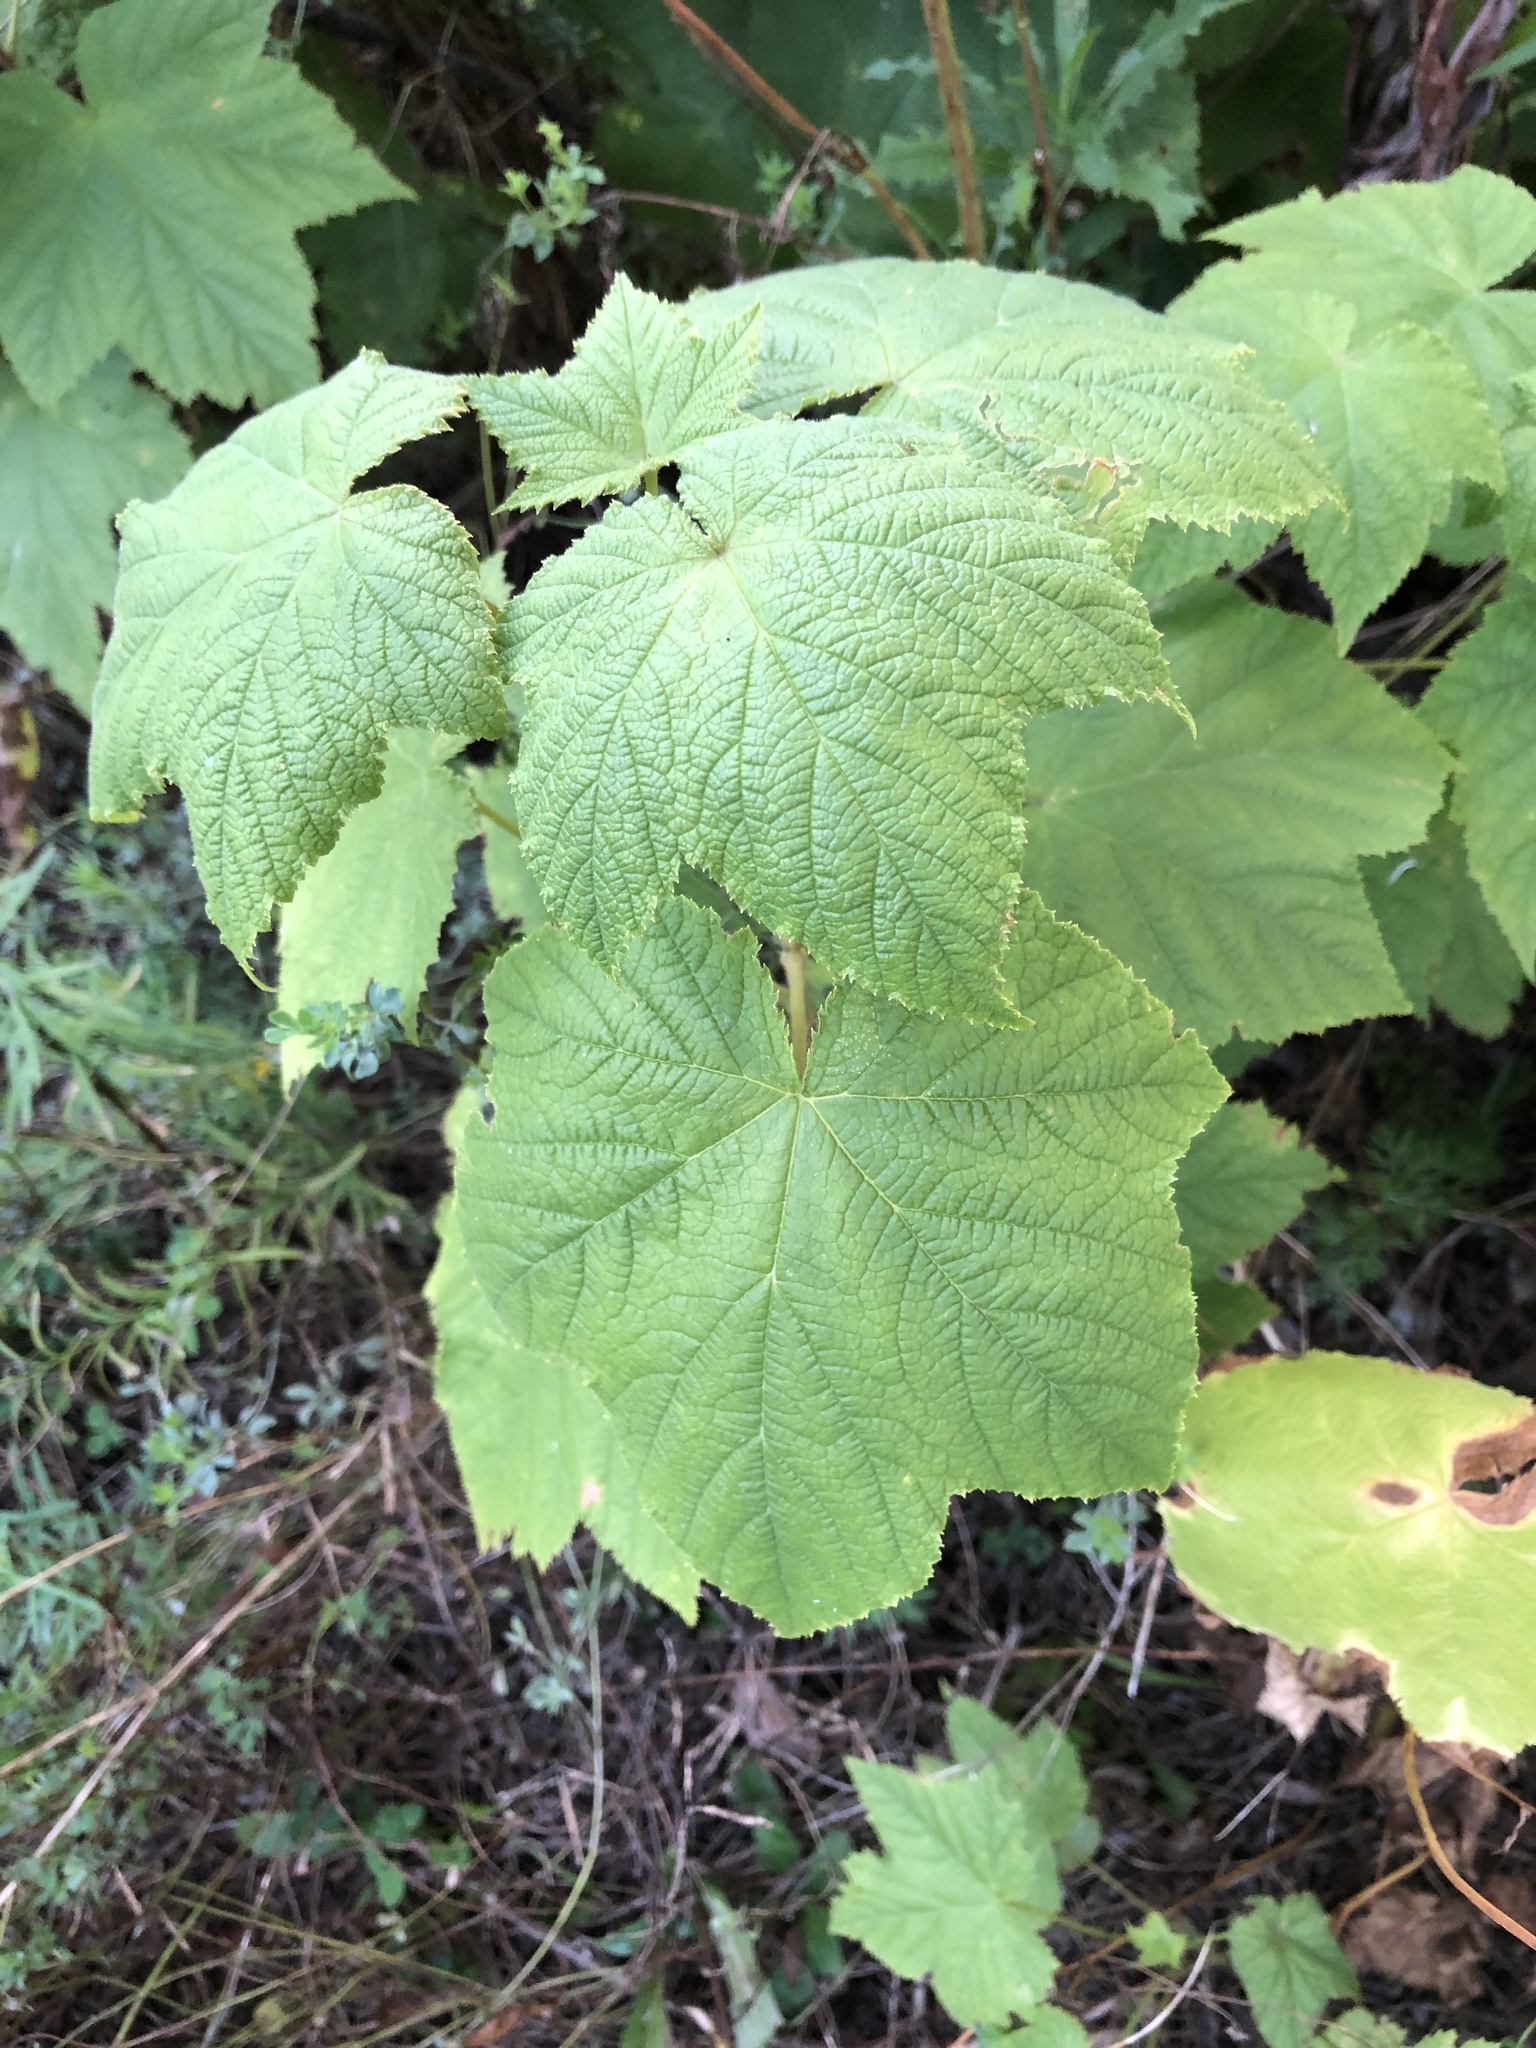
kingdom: Plantae
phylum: Tracheophyta
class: Magnoliopsida
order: Rosales
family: Rosaceae
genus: Rubus
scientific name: Rubus odoratus
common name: Purple-flowered raspberry
